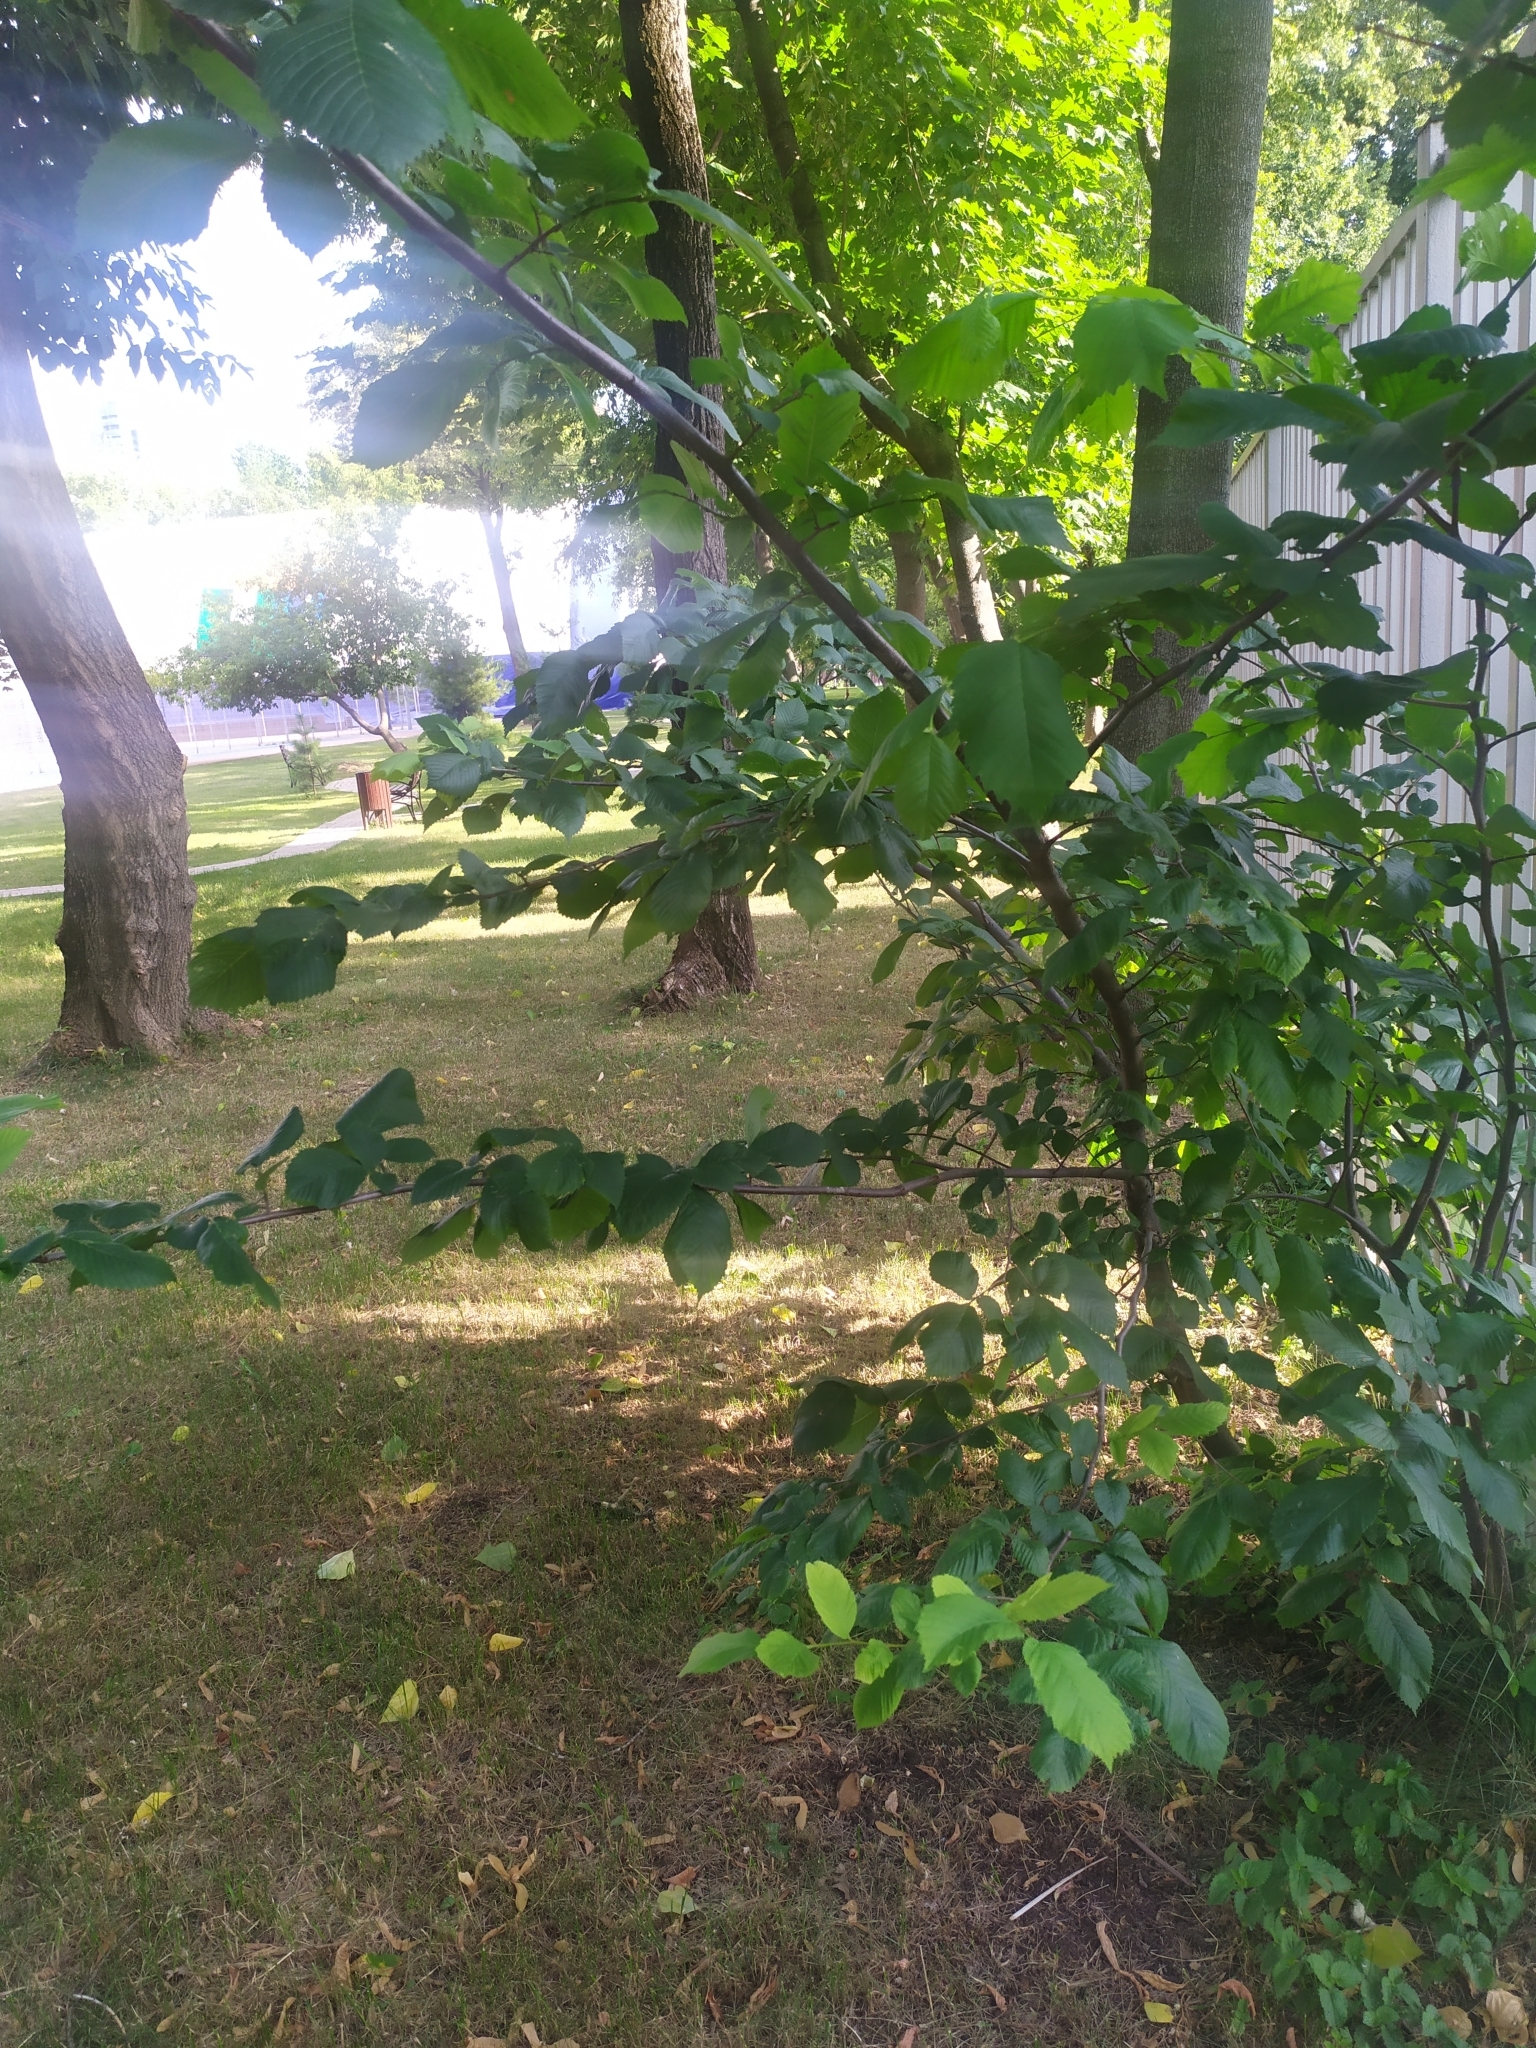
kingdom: Plantae
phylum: Tracheophyta
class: Magnoliopsida
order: Rosales
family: Ulmaceae
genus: Ulmus
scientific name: Ulmus laevis
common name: European white-elm
